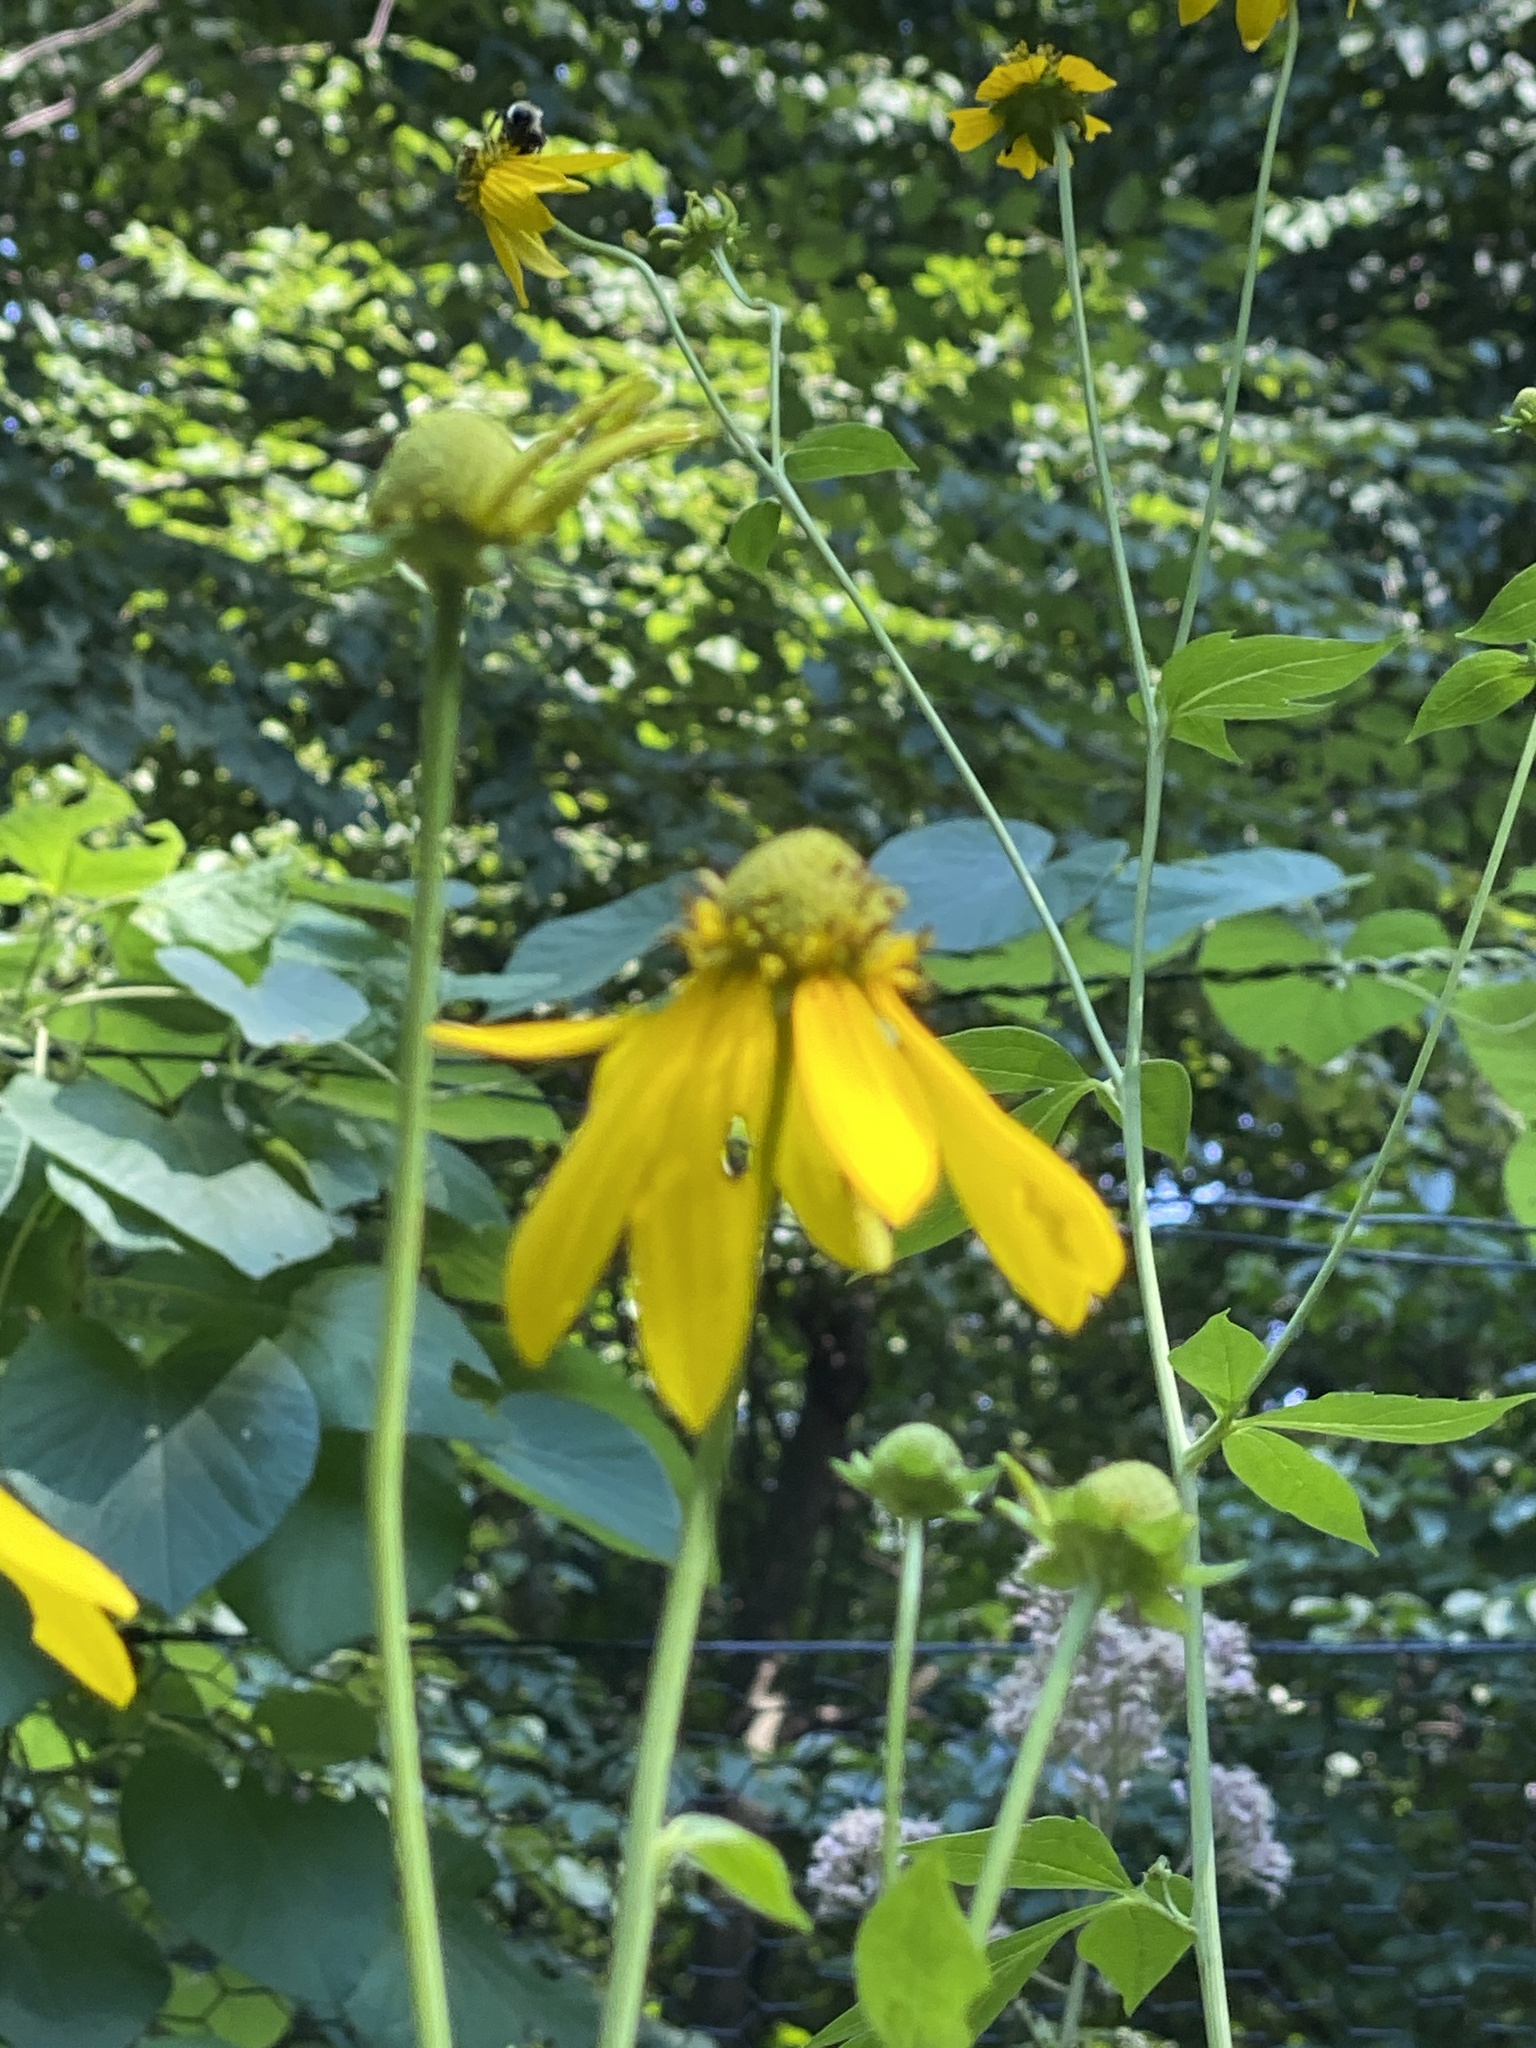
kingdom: Plantae
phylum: Tracheophyta
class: Magnoliopsida
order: Asterales
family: Asteraceae
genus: Rudbeckia
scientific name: Rudbeckia laciniata
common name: Coneflower
